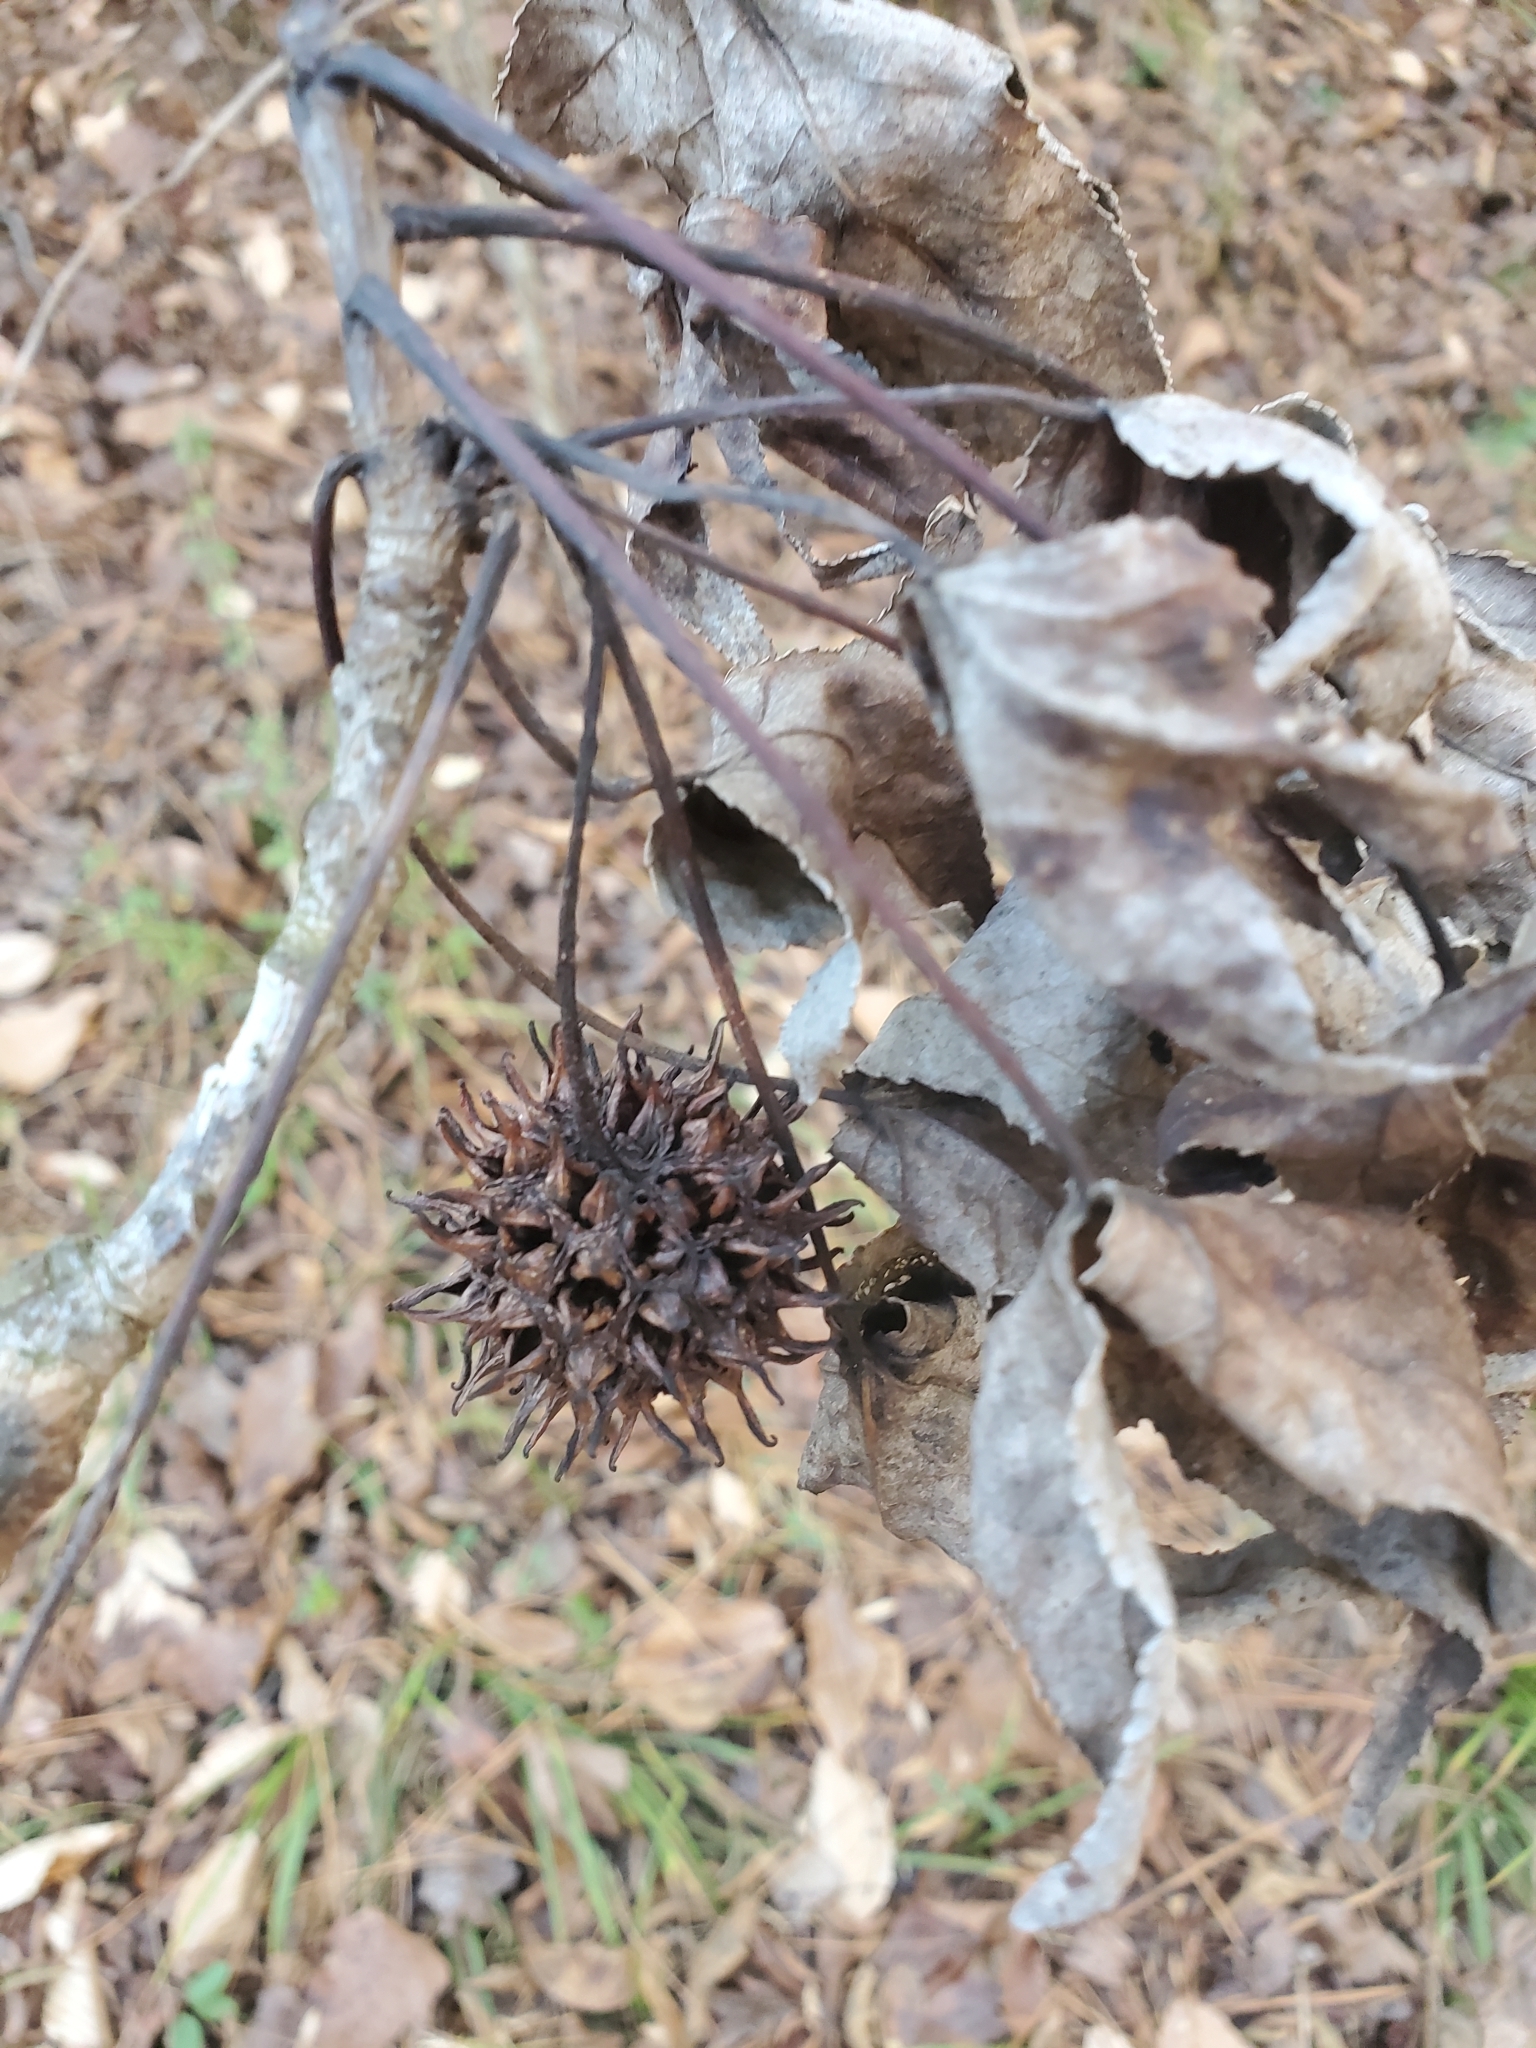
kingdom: Plantae
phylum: Tracheophyta
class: Magnoliopsida
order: Saxifragales
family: Altingiaceae
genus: Liquidambar
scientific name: Liquidambar styraciflua
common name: Sweet gum
